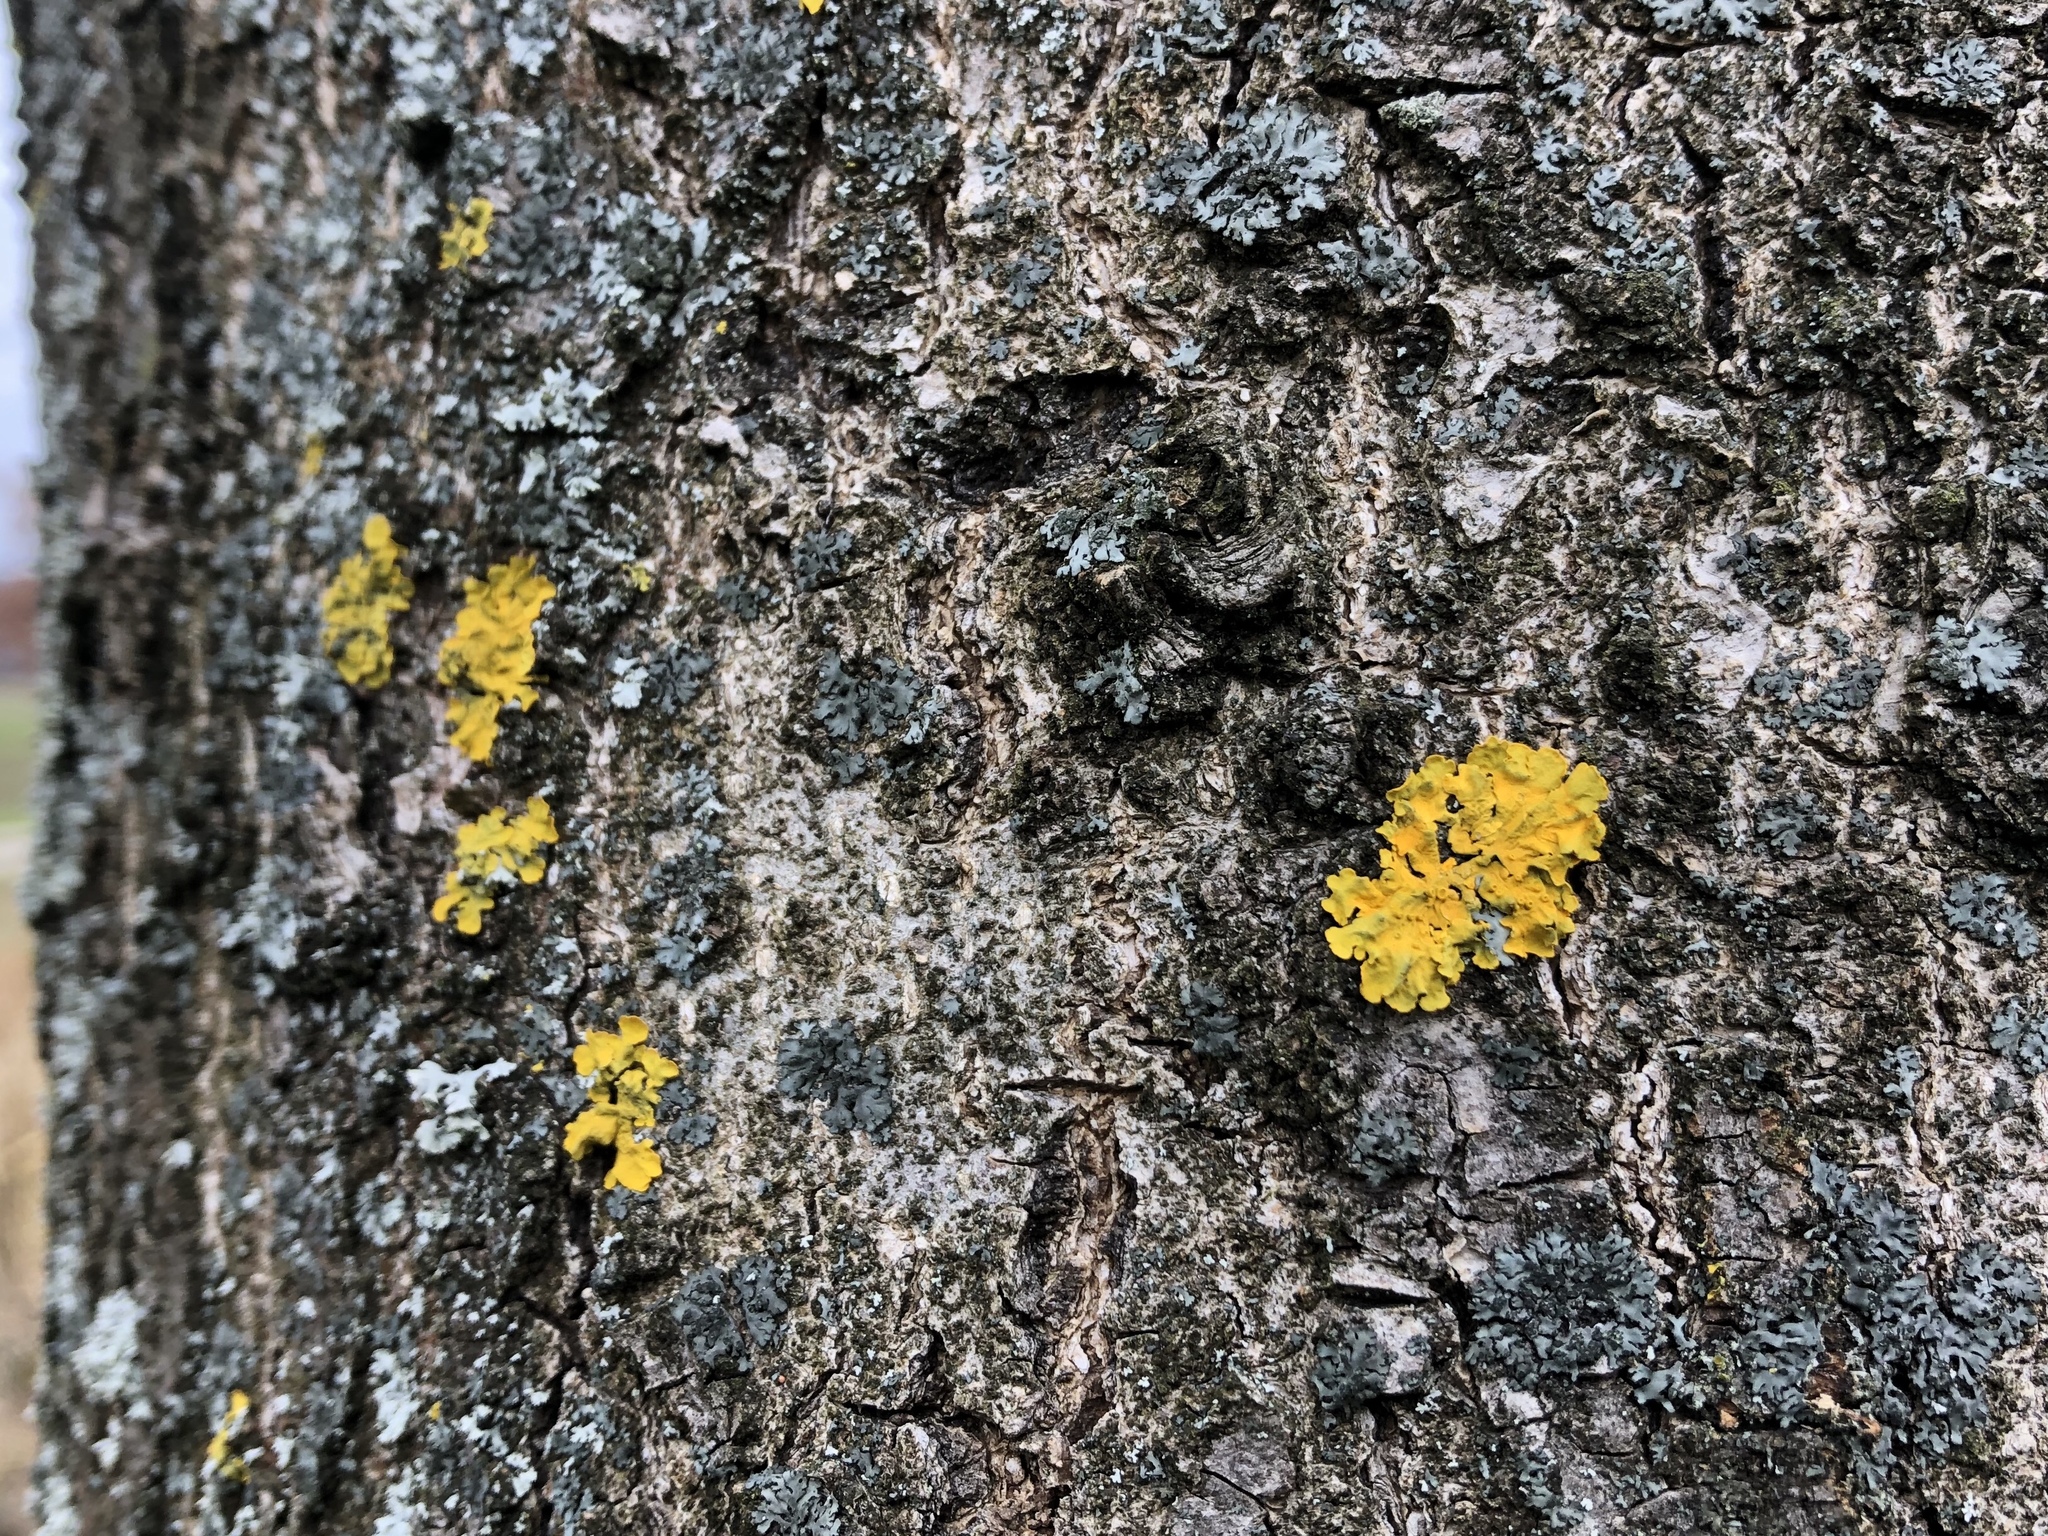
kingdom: Fungi
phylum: Ascomycota
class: Lecanoromycetes
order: Teloschistales
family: Teloschistaceae
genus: Xanthoria
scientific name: Xanthoria parietina
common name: Common orange lichen
